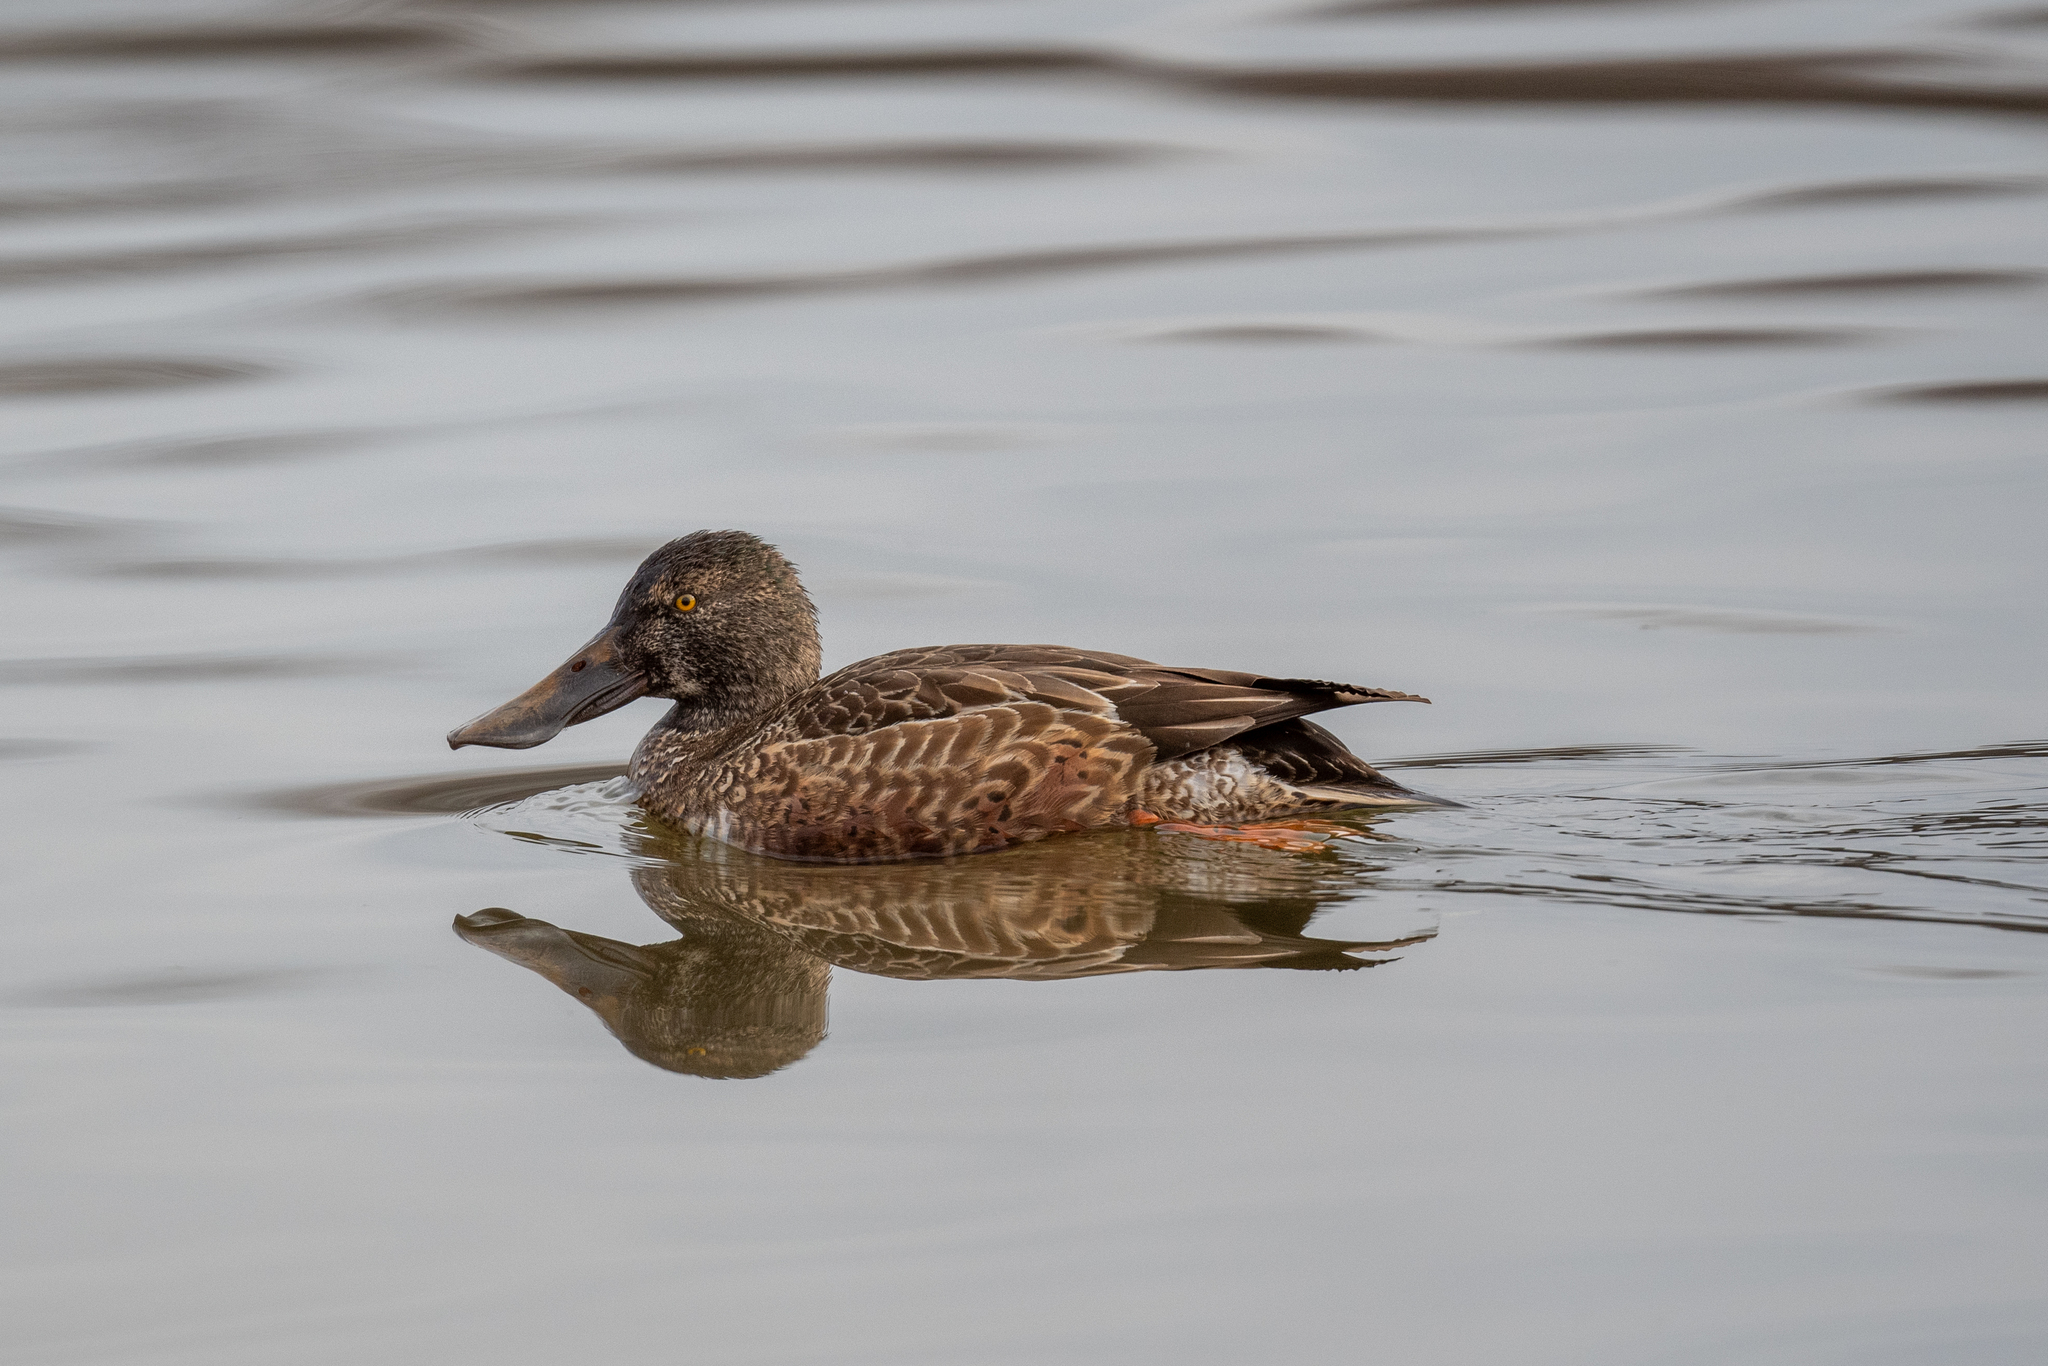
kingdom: Animalia
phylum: Chordata
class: Aves
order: Anseriformes
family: Anatidae
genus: Spatula
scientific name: Spatula clypeata
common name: Northern shoveler
